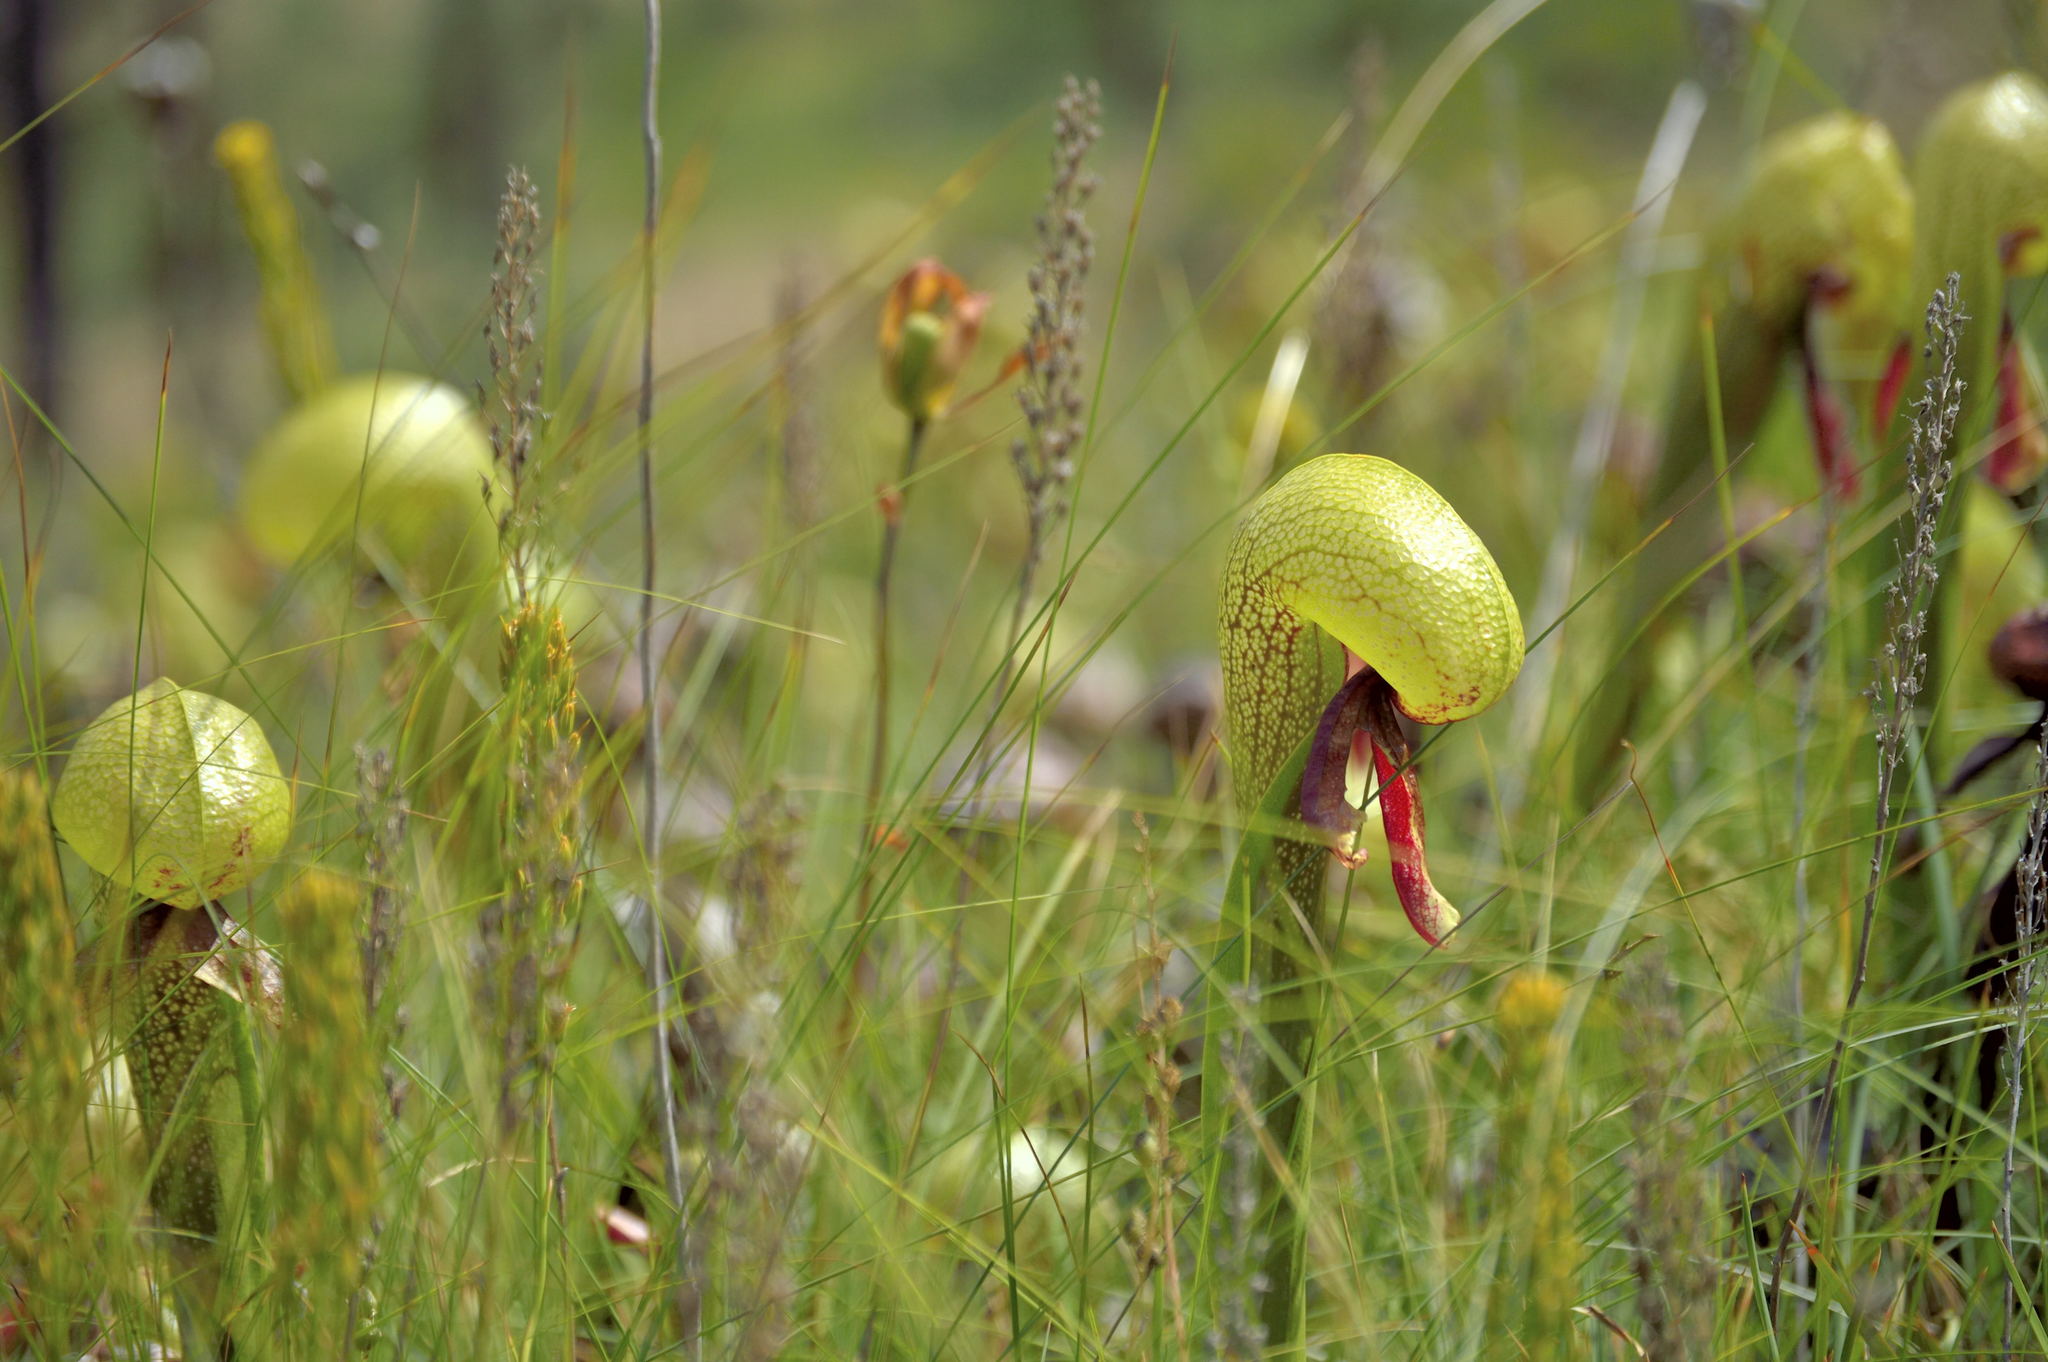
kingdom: Plantae
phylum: Tracheophyta
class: Magnoliopsida
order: Ericales
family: Sarraceniaceae
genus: Darlingtonia
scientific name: Darlingtonia californica
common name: California pitcher plant
